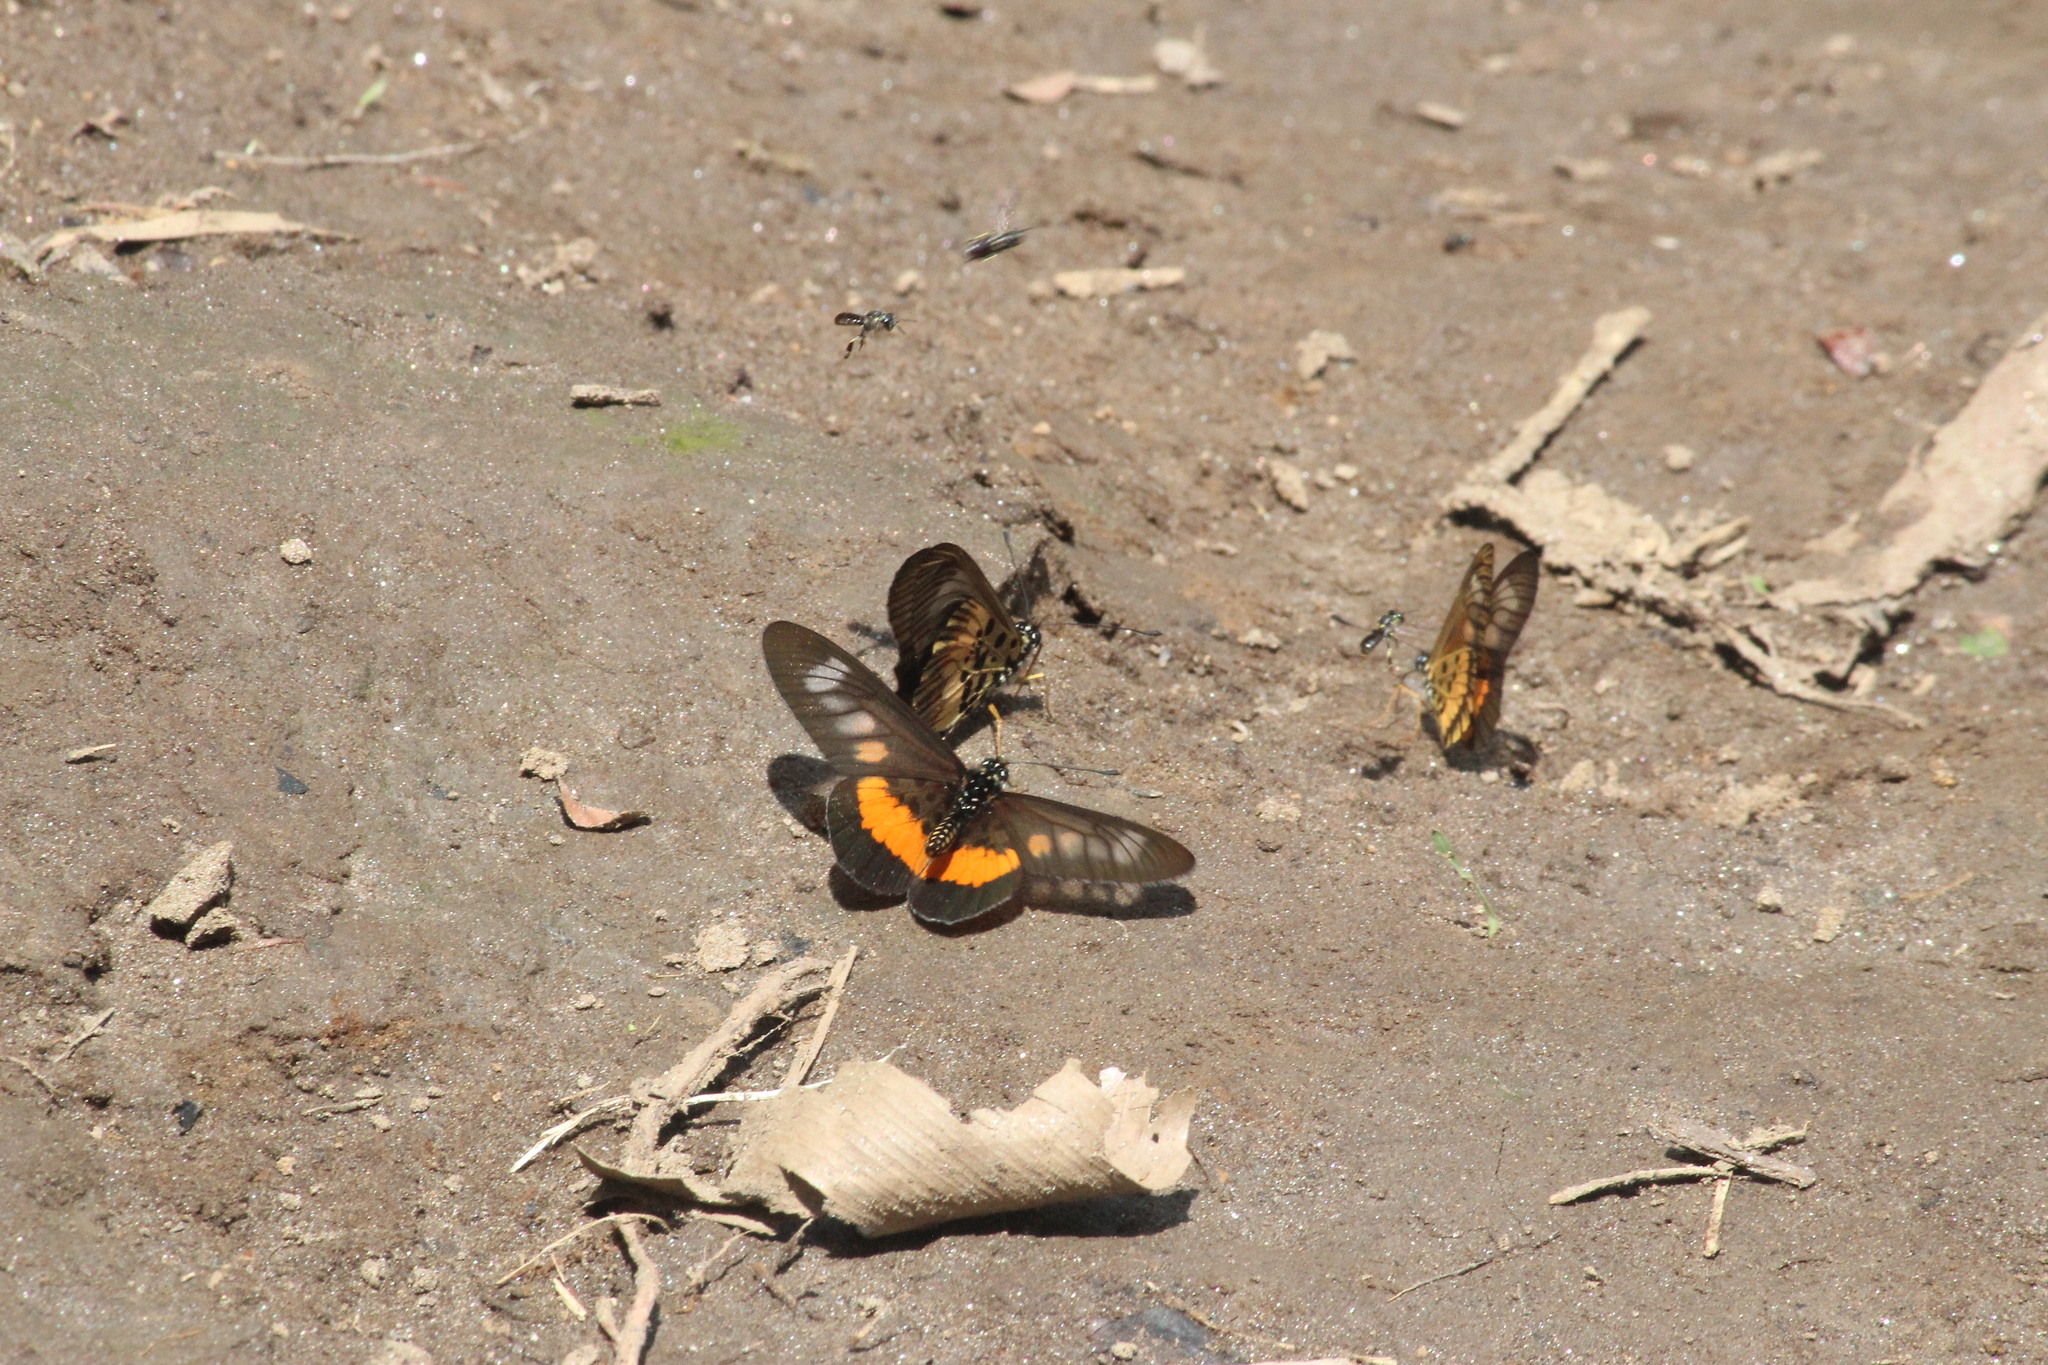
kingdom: Animalia
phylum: Arthropoda
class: Insecta
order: Lepidoptera
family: Nymphalidae
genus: Acraea
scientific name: Acraea
